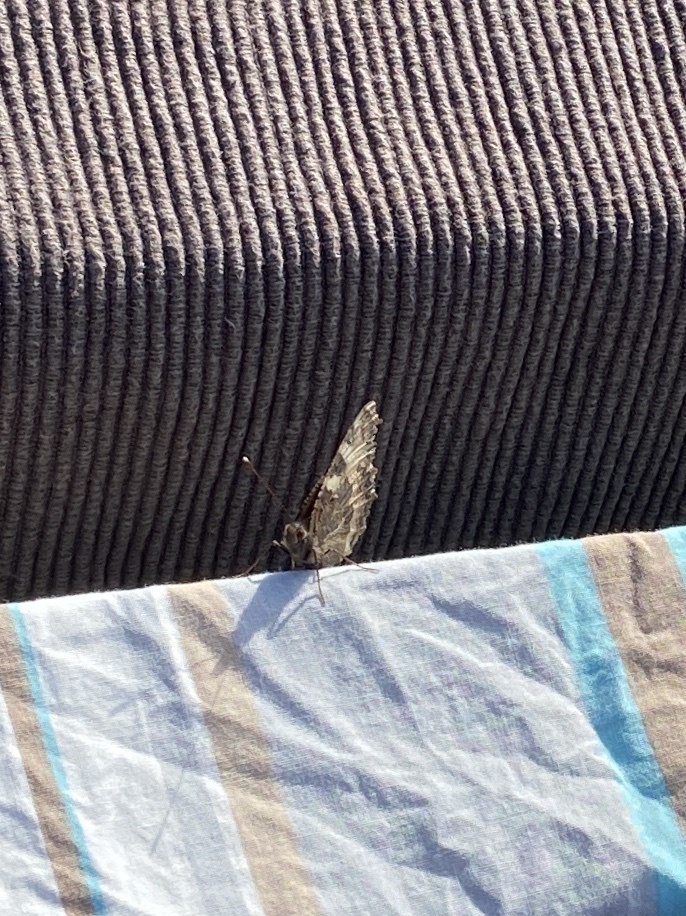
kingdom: Animalia
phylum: Arthropoda
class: Insecta
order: Lepidoptera
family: Nymphalidae
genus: Aglais
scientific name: Aglais urticae
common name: Small tortoiseshell
